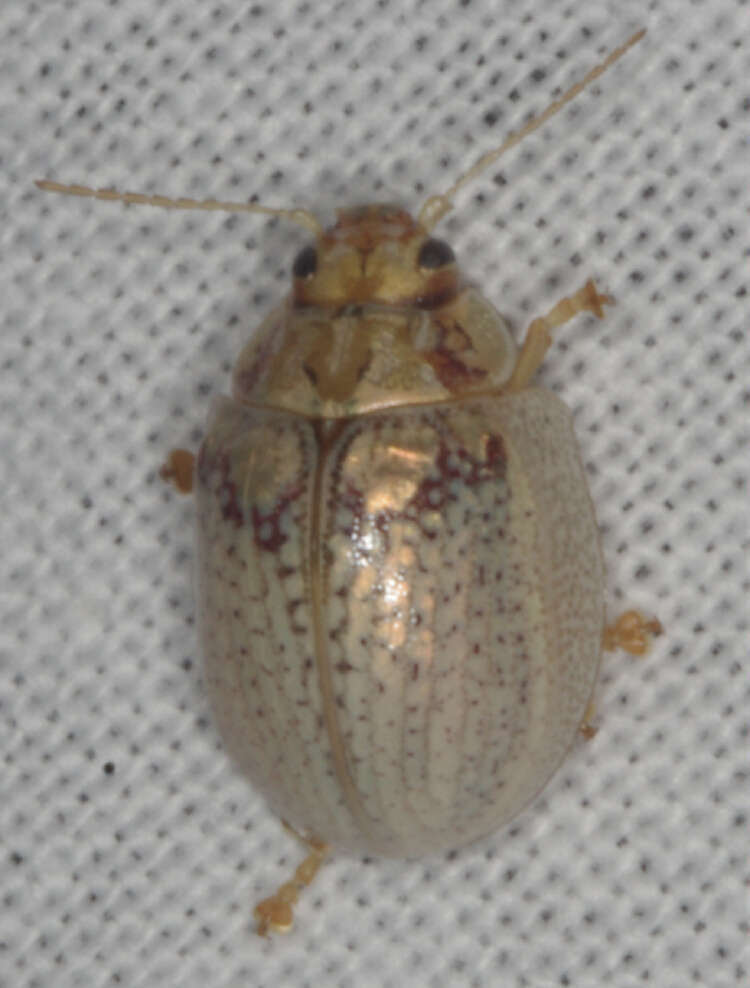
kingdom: Animalia
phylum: Arthropoda
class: Insecta
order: Coleoptera
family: Chrysomelidae
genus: Paropsisterna
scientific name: Paropsisterna
